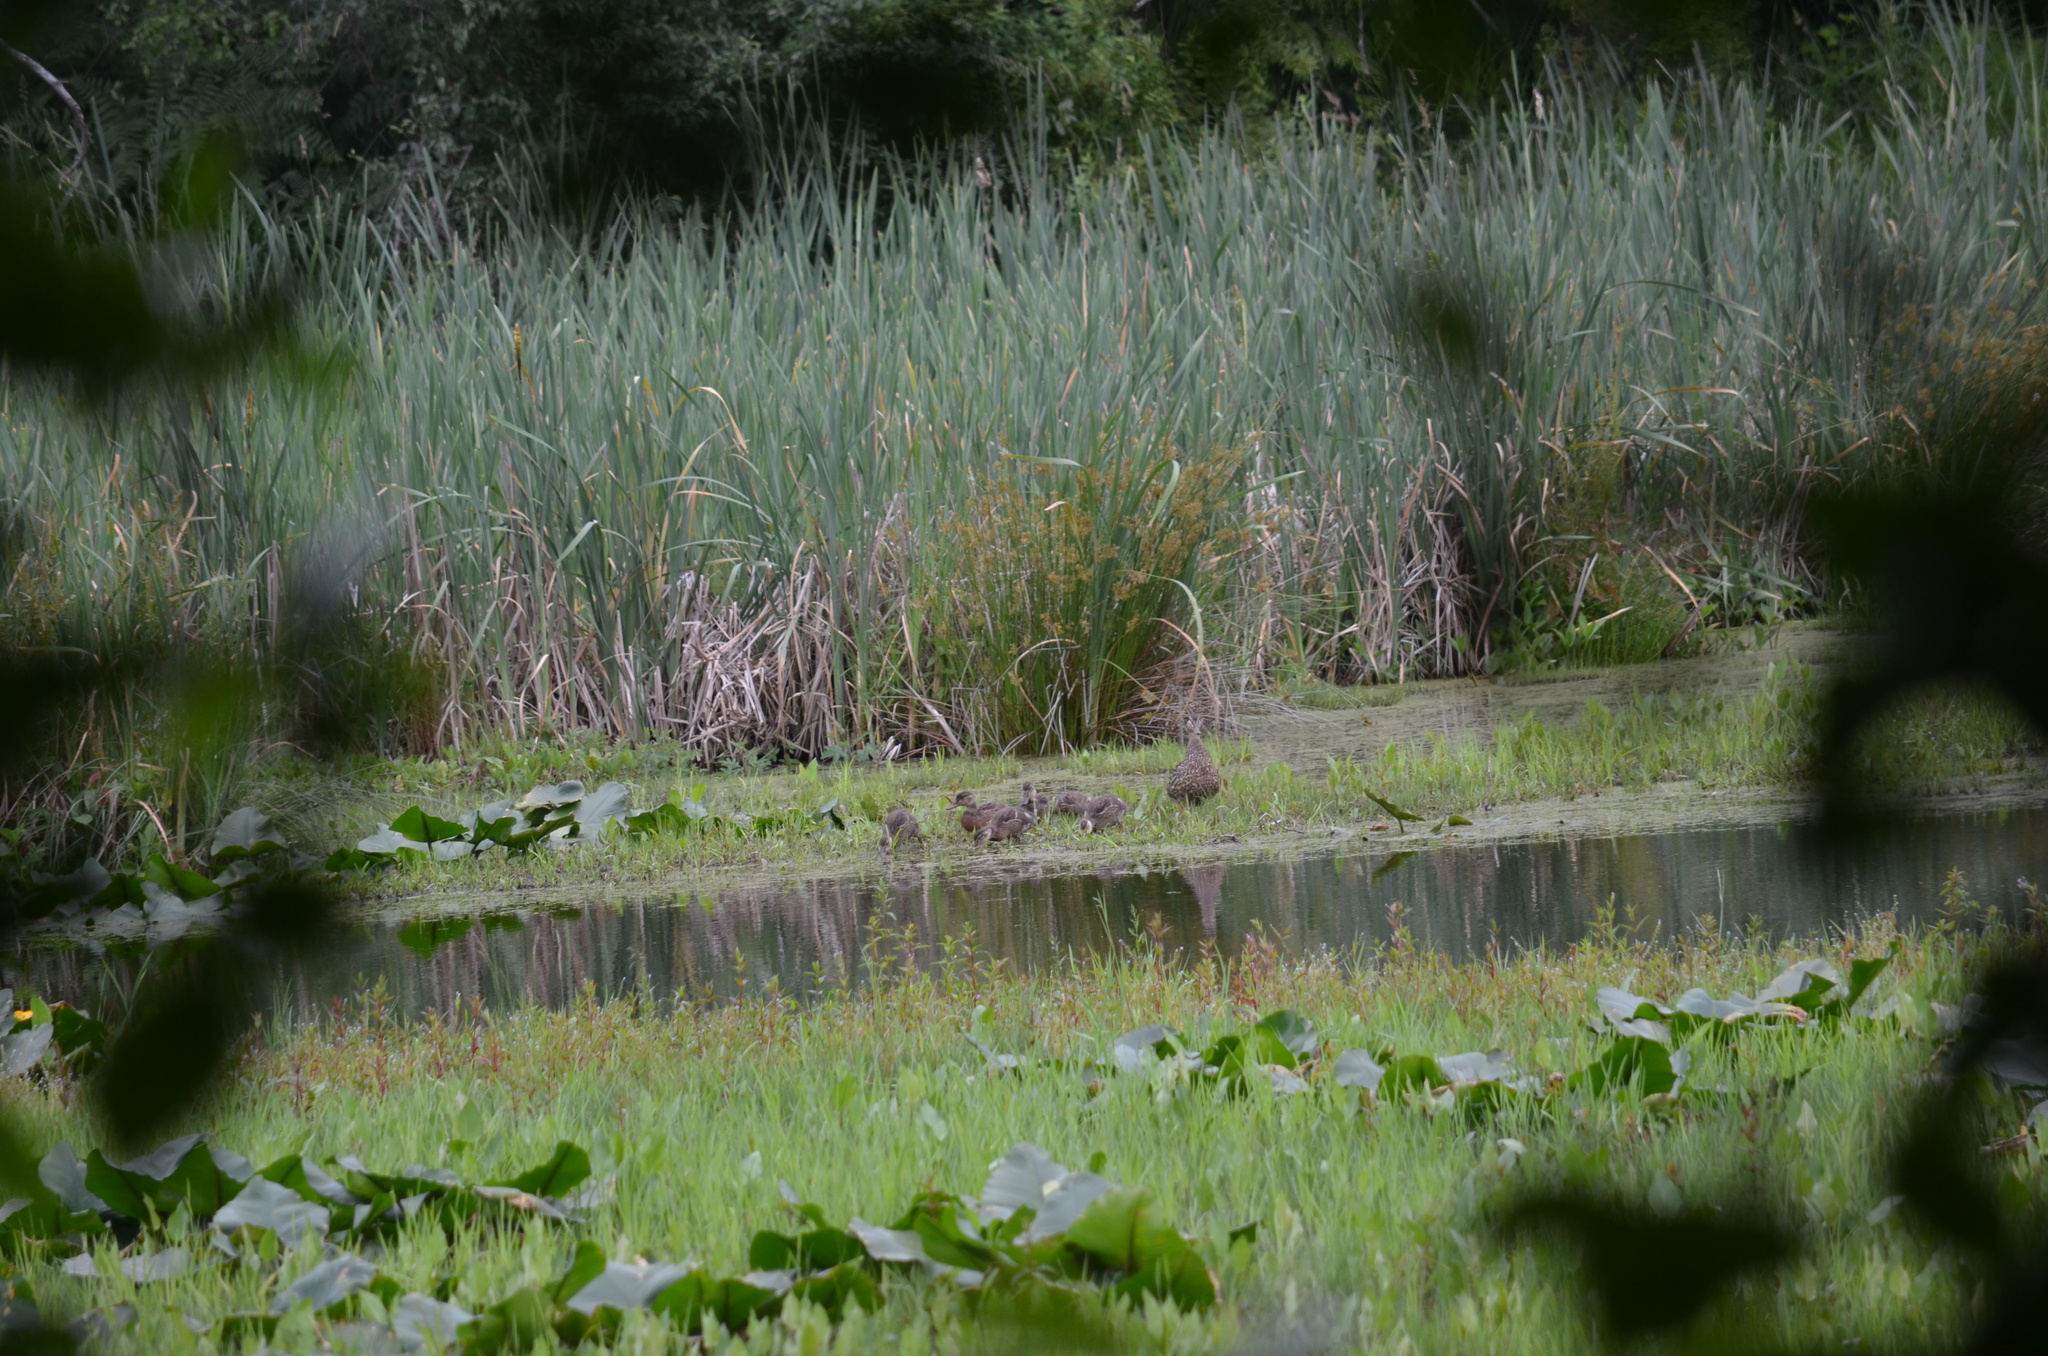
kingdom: Animalia
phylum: Chordata
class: Aves
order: Anseriformes
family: Anatidae
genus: Anas
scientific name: Anas platyrhynchos
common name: Mallard
